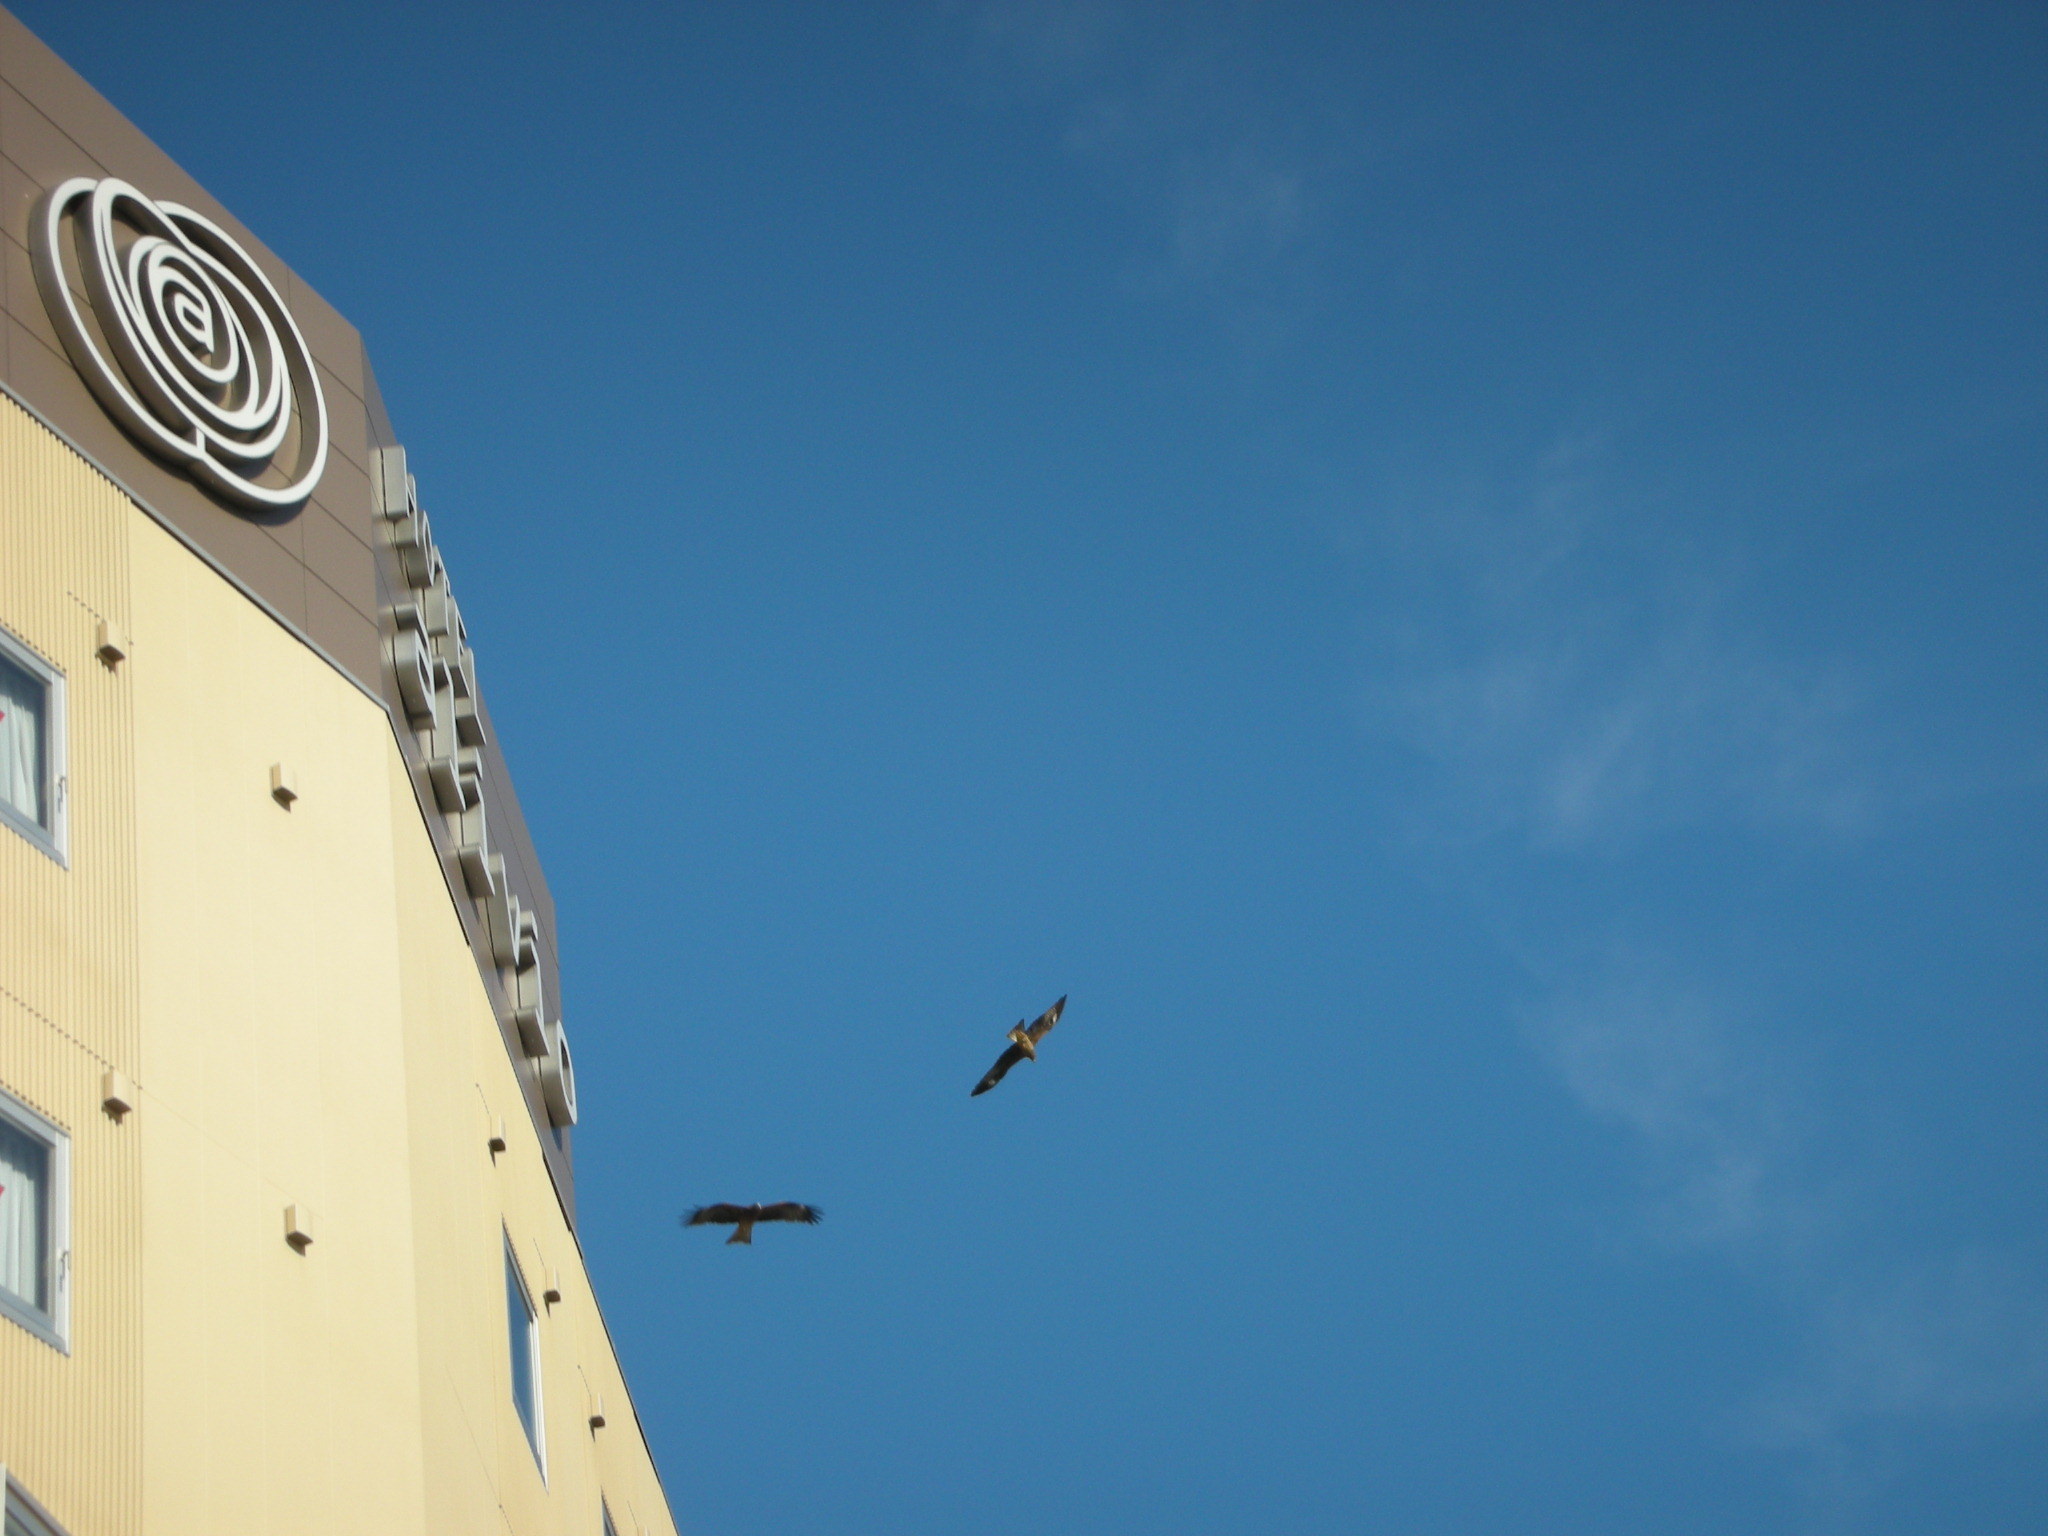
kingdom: Animalia
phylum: Chordata
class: Aves
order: Accipitriformes
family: Accipitridae
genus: Milvus
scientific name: Milvus migrans
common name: Black kite
